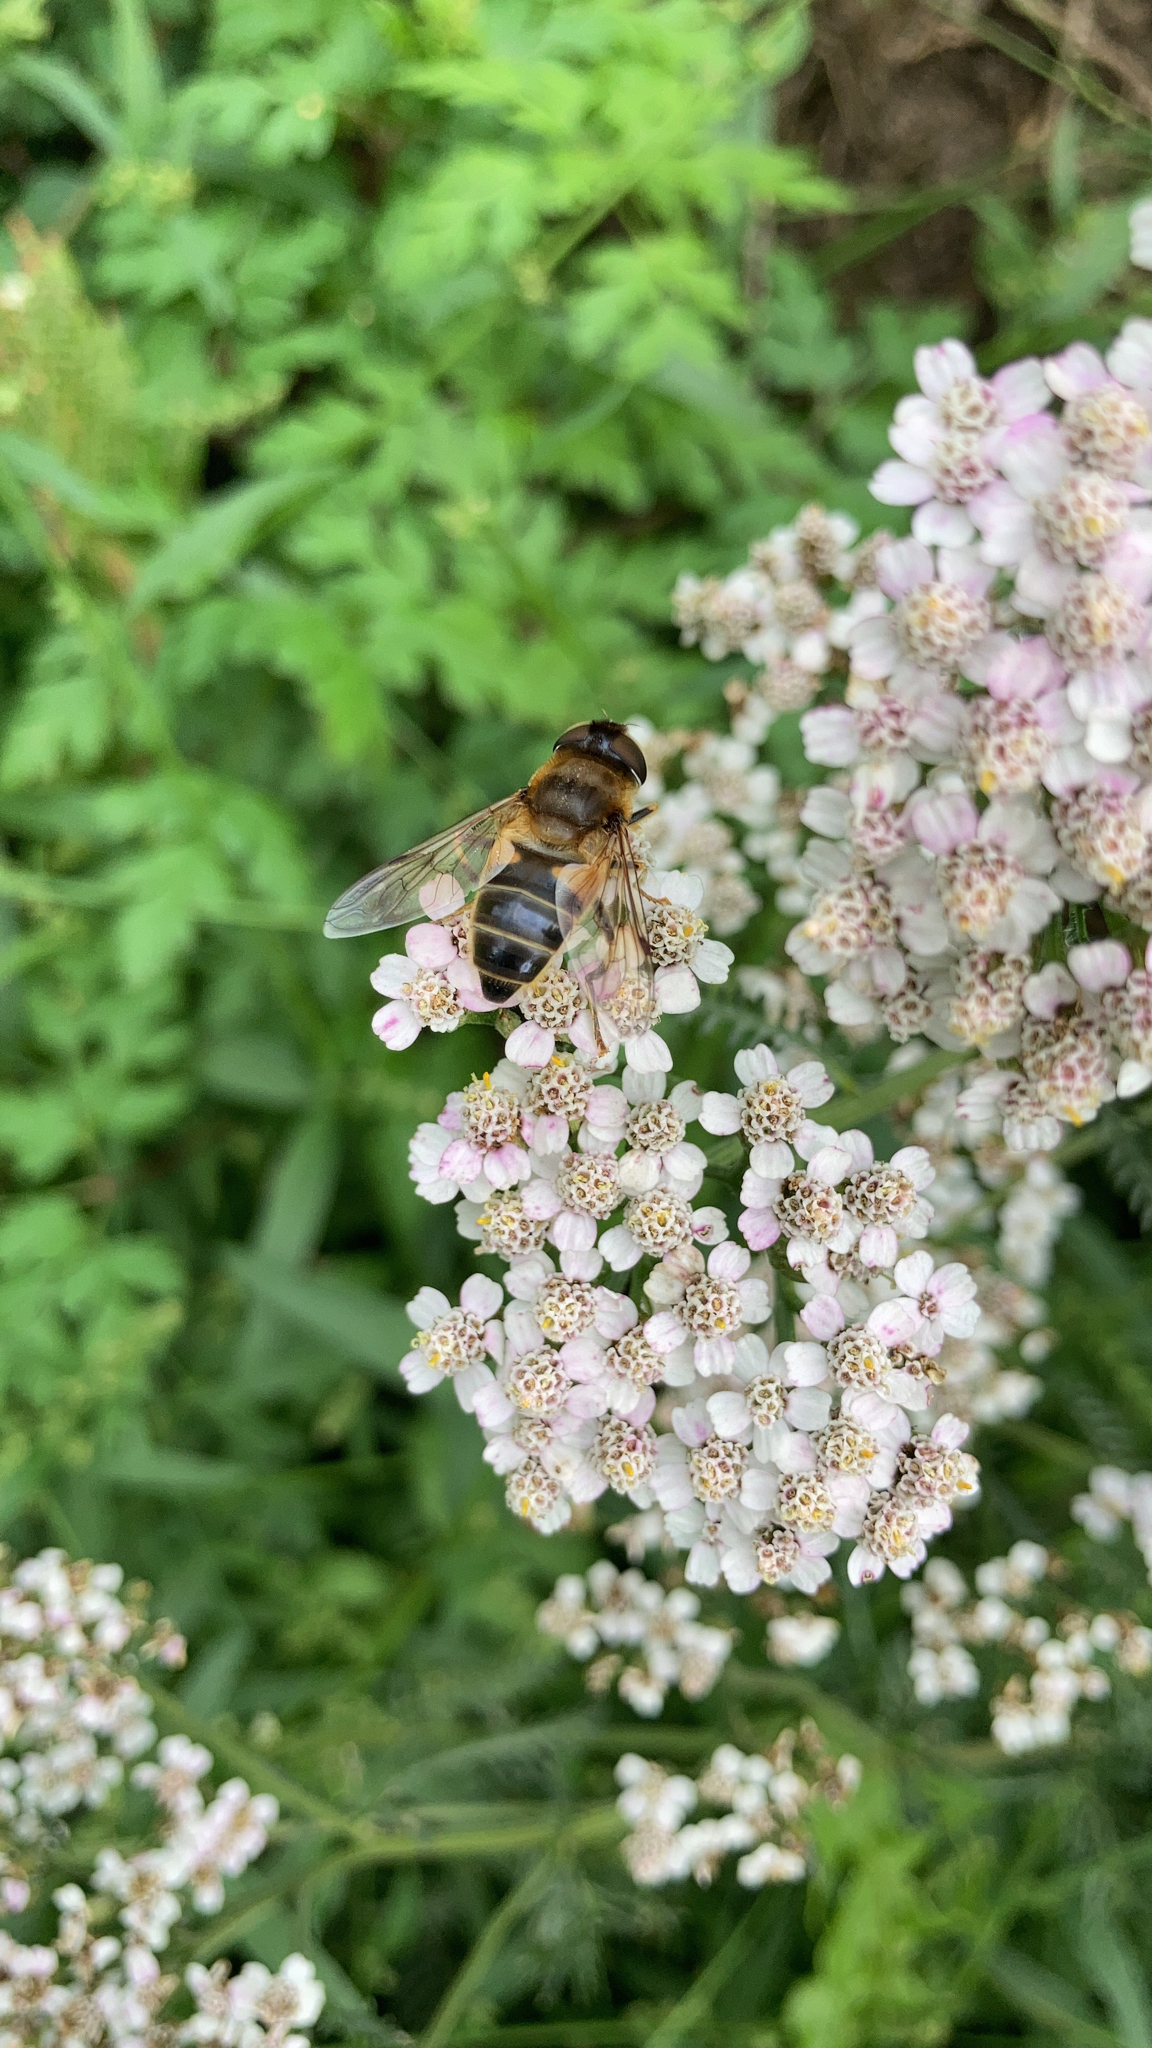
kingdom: Animalia
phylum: Arthropoda
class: Insecta
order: Diptera
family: Syrphidae
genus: Eristalis
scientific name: Eristalis pertinax
